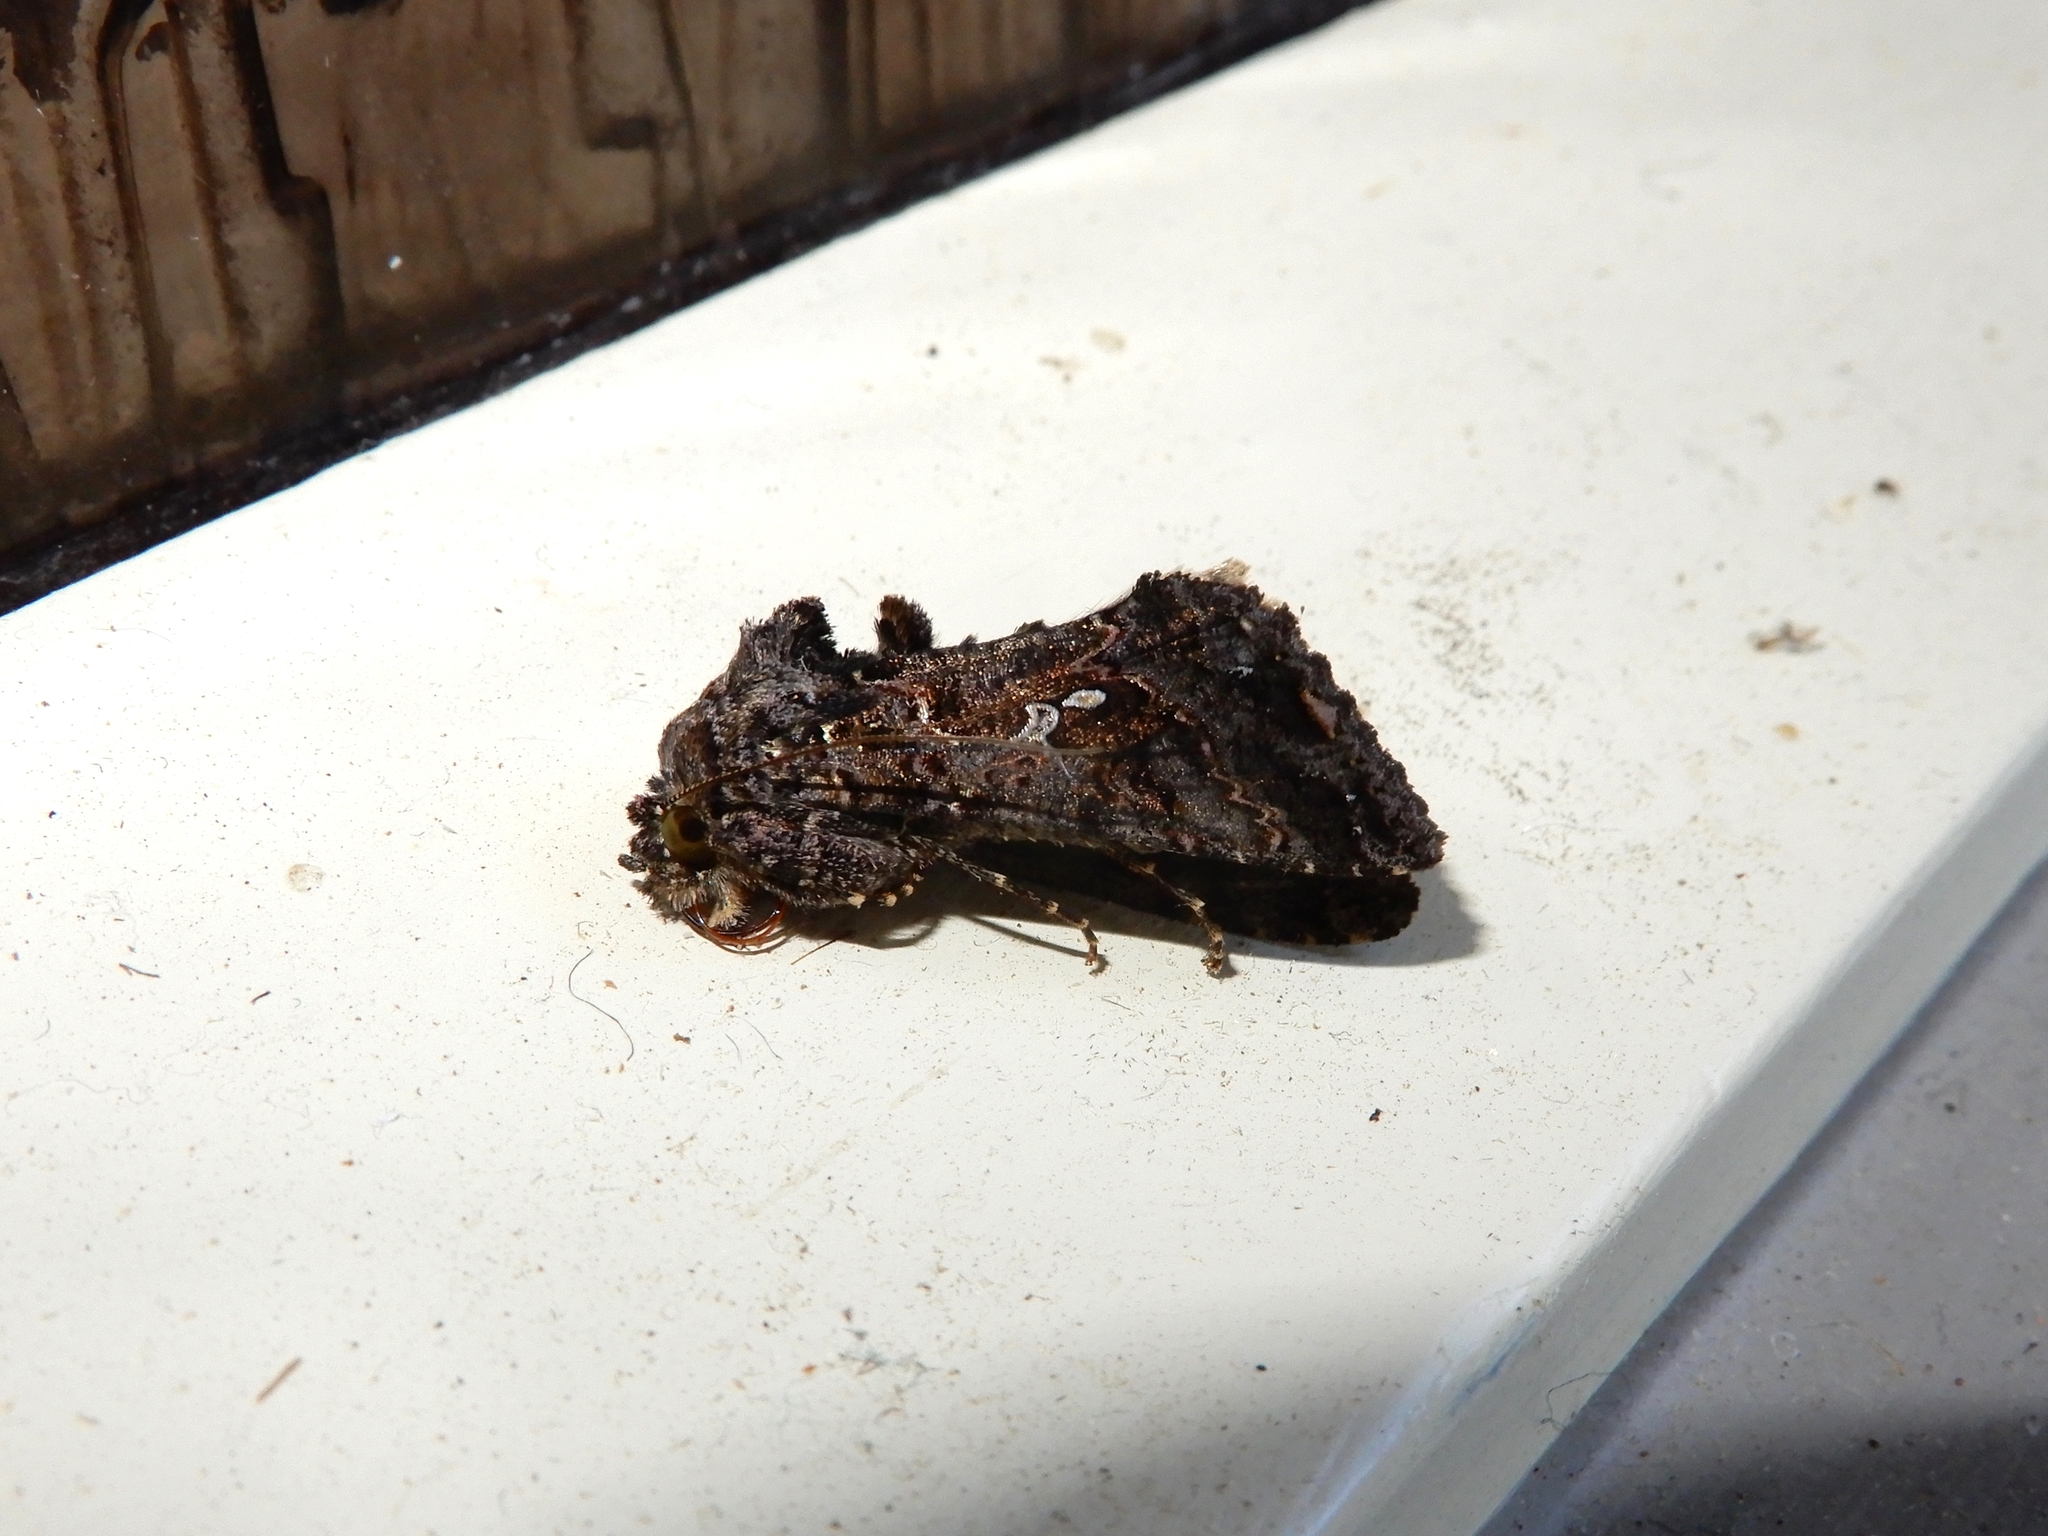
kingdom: Animalia
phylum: Arthropoda
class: Insecta
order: Lepidoptera
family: Noctuidae
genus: Ctenoplusia
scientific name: Ctenoplusia limbirena
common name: Scar bank gem
